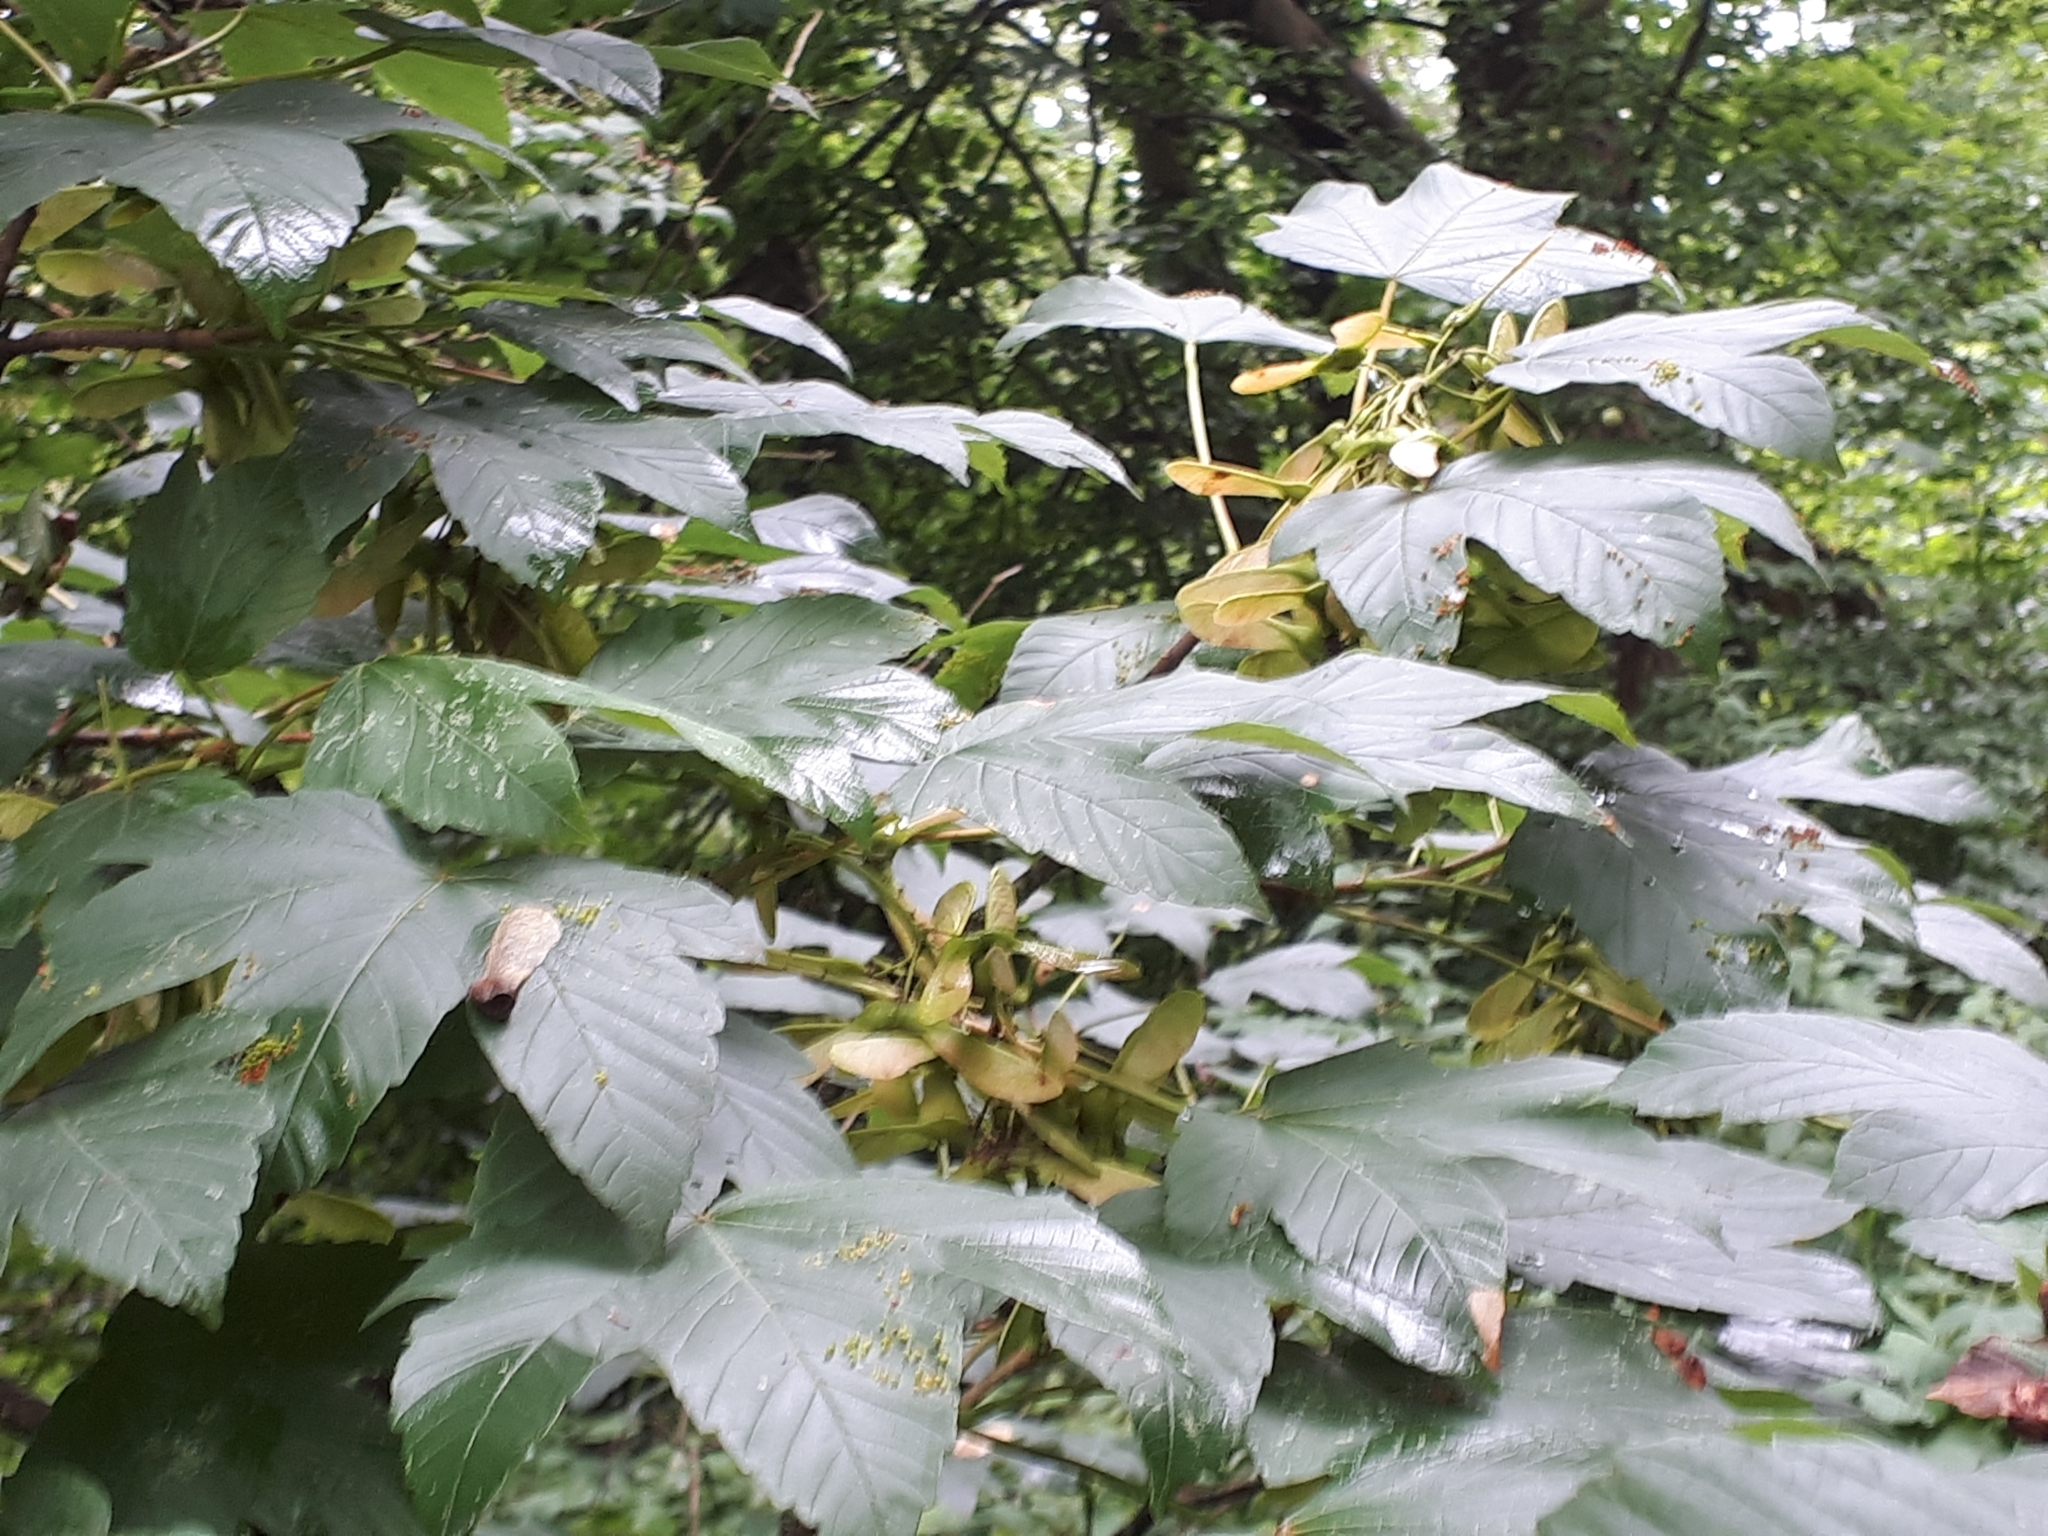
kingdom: Plantae
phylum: Tracheophyta
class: Magnoliopsida
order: Sapindales
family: Sapindaceae
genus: Acer
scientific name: Acer pseudoplatanus
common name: Sycamore
